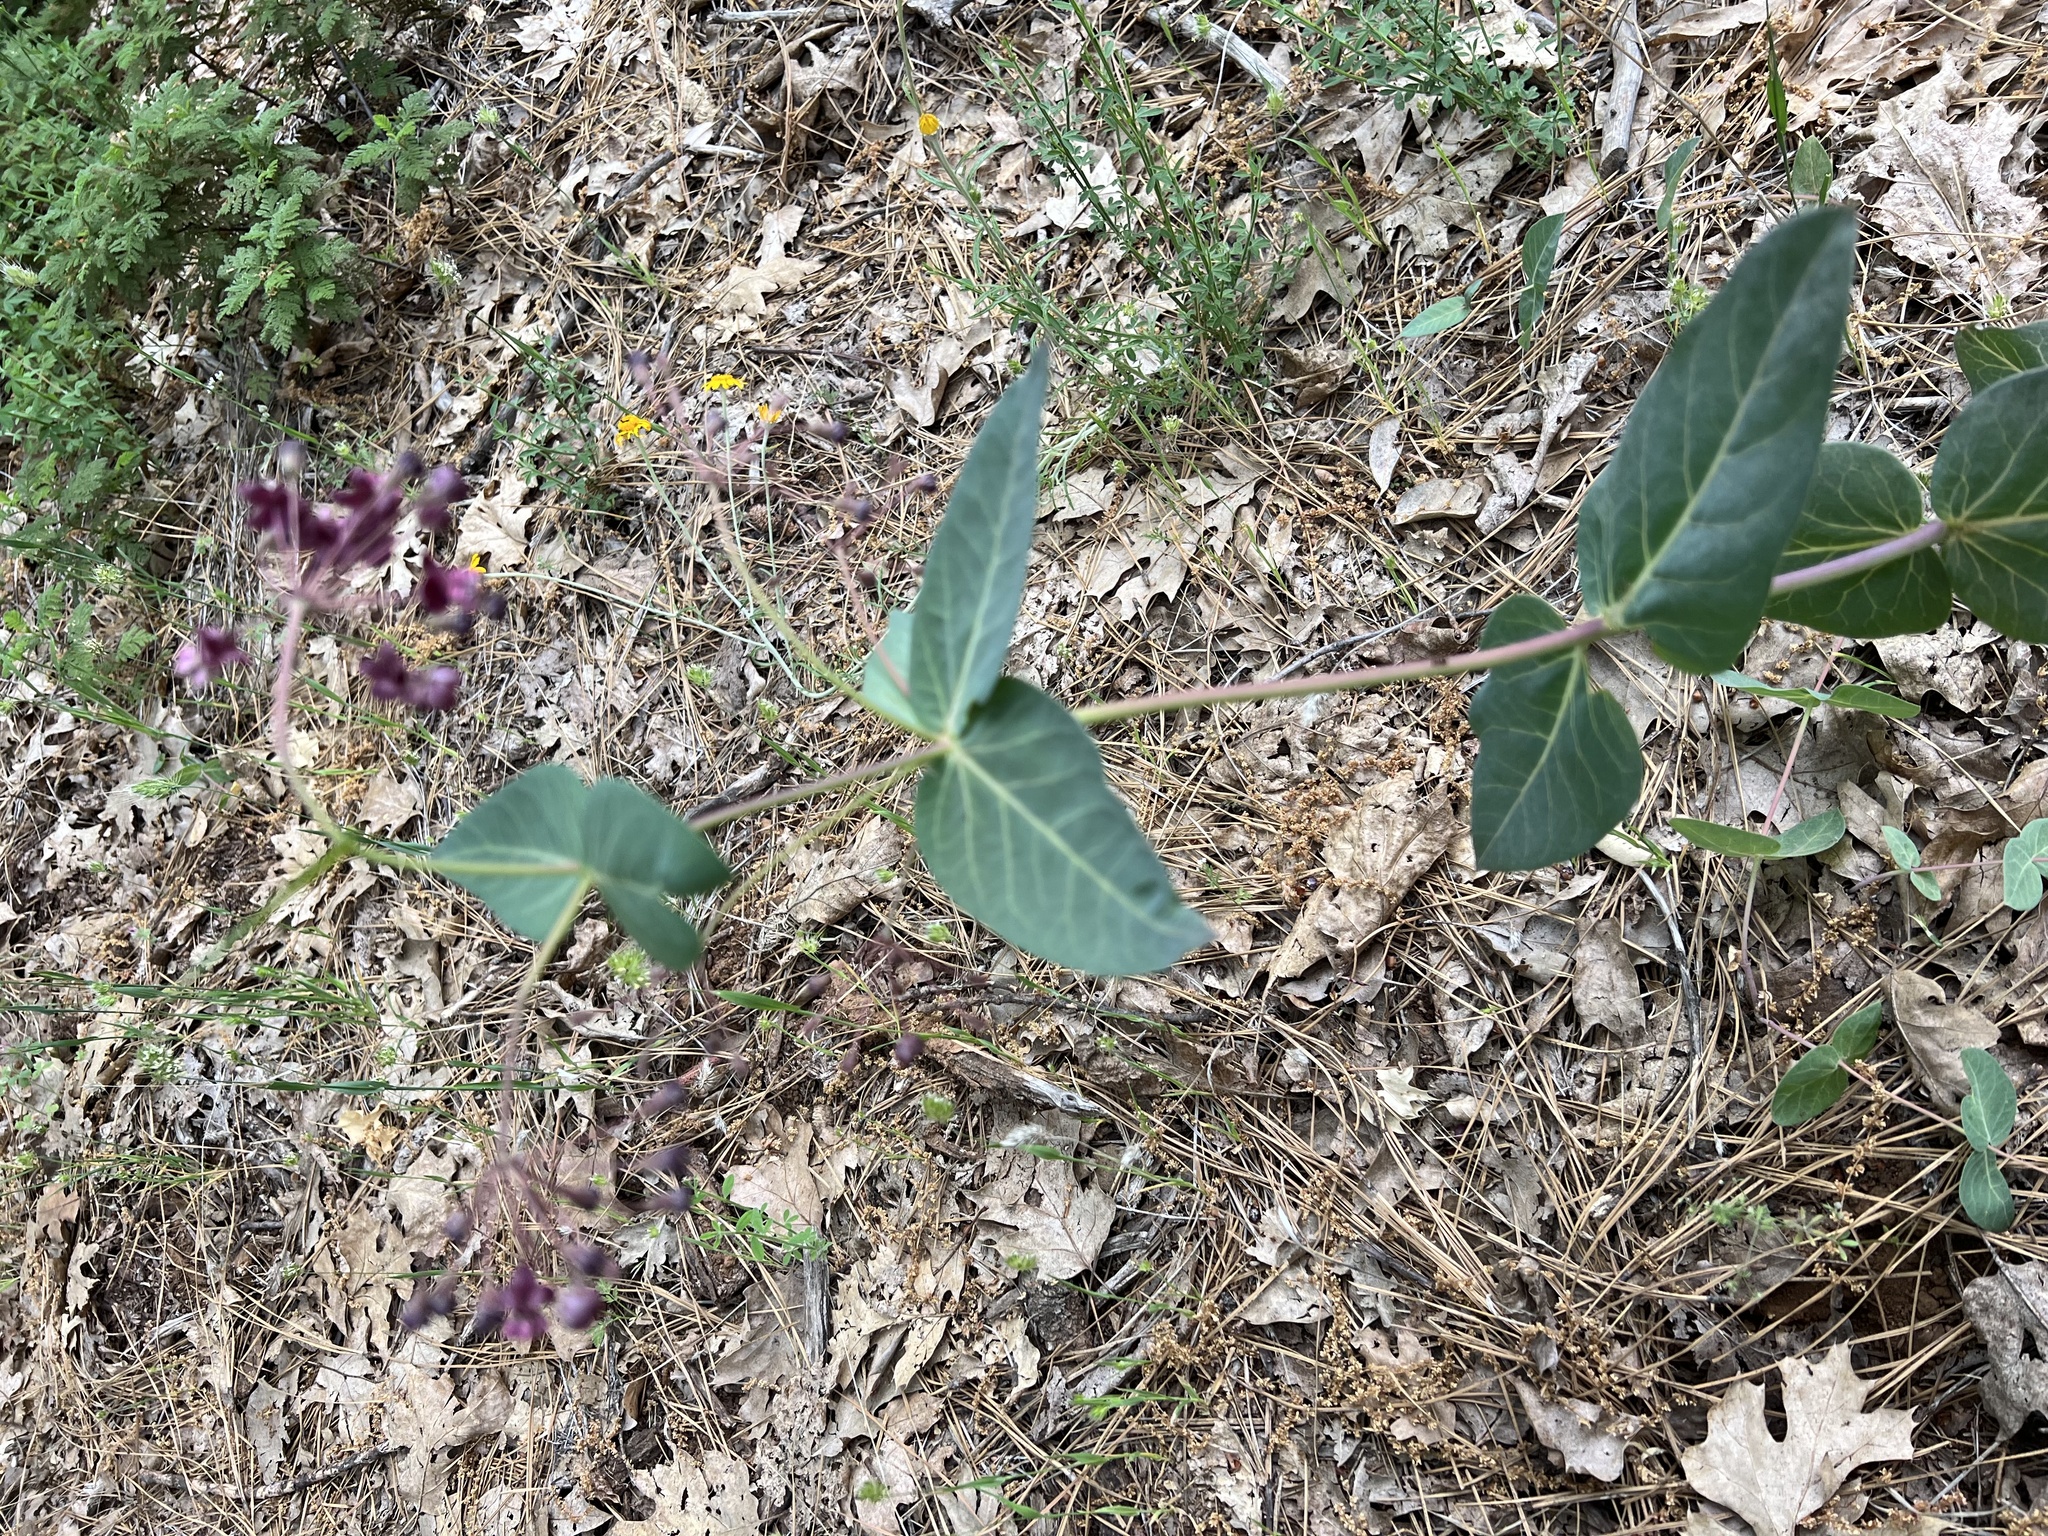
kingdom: Plantae
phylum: Tracheophyta
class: Magnoliopsida
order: Gentianales
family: Apocynaceae
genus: Asclepias
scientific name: Asclepias cordifolia
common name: Purple milkweed
